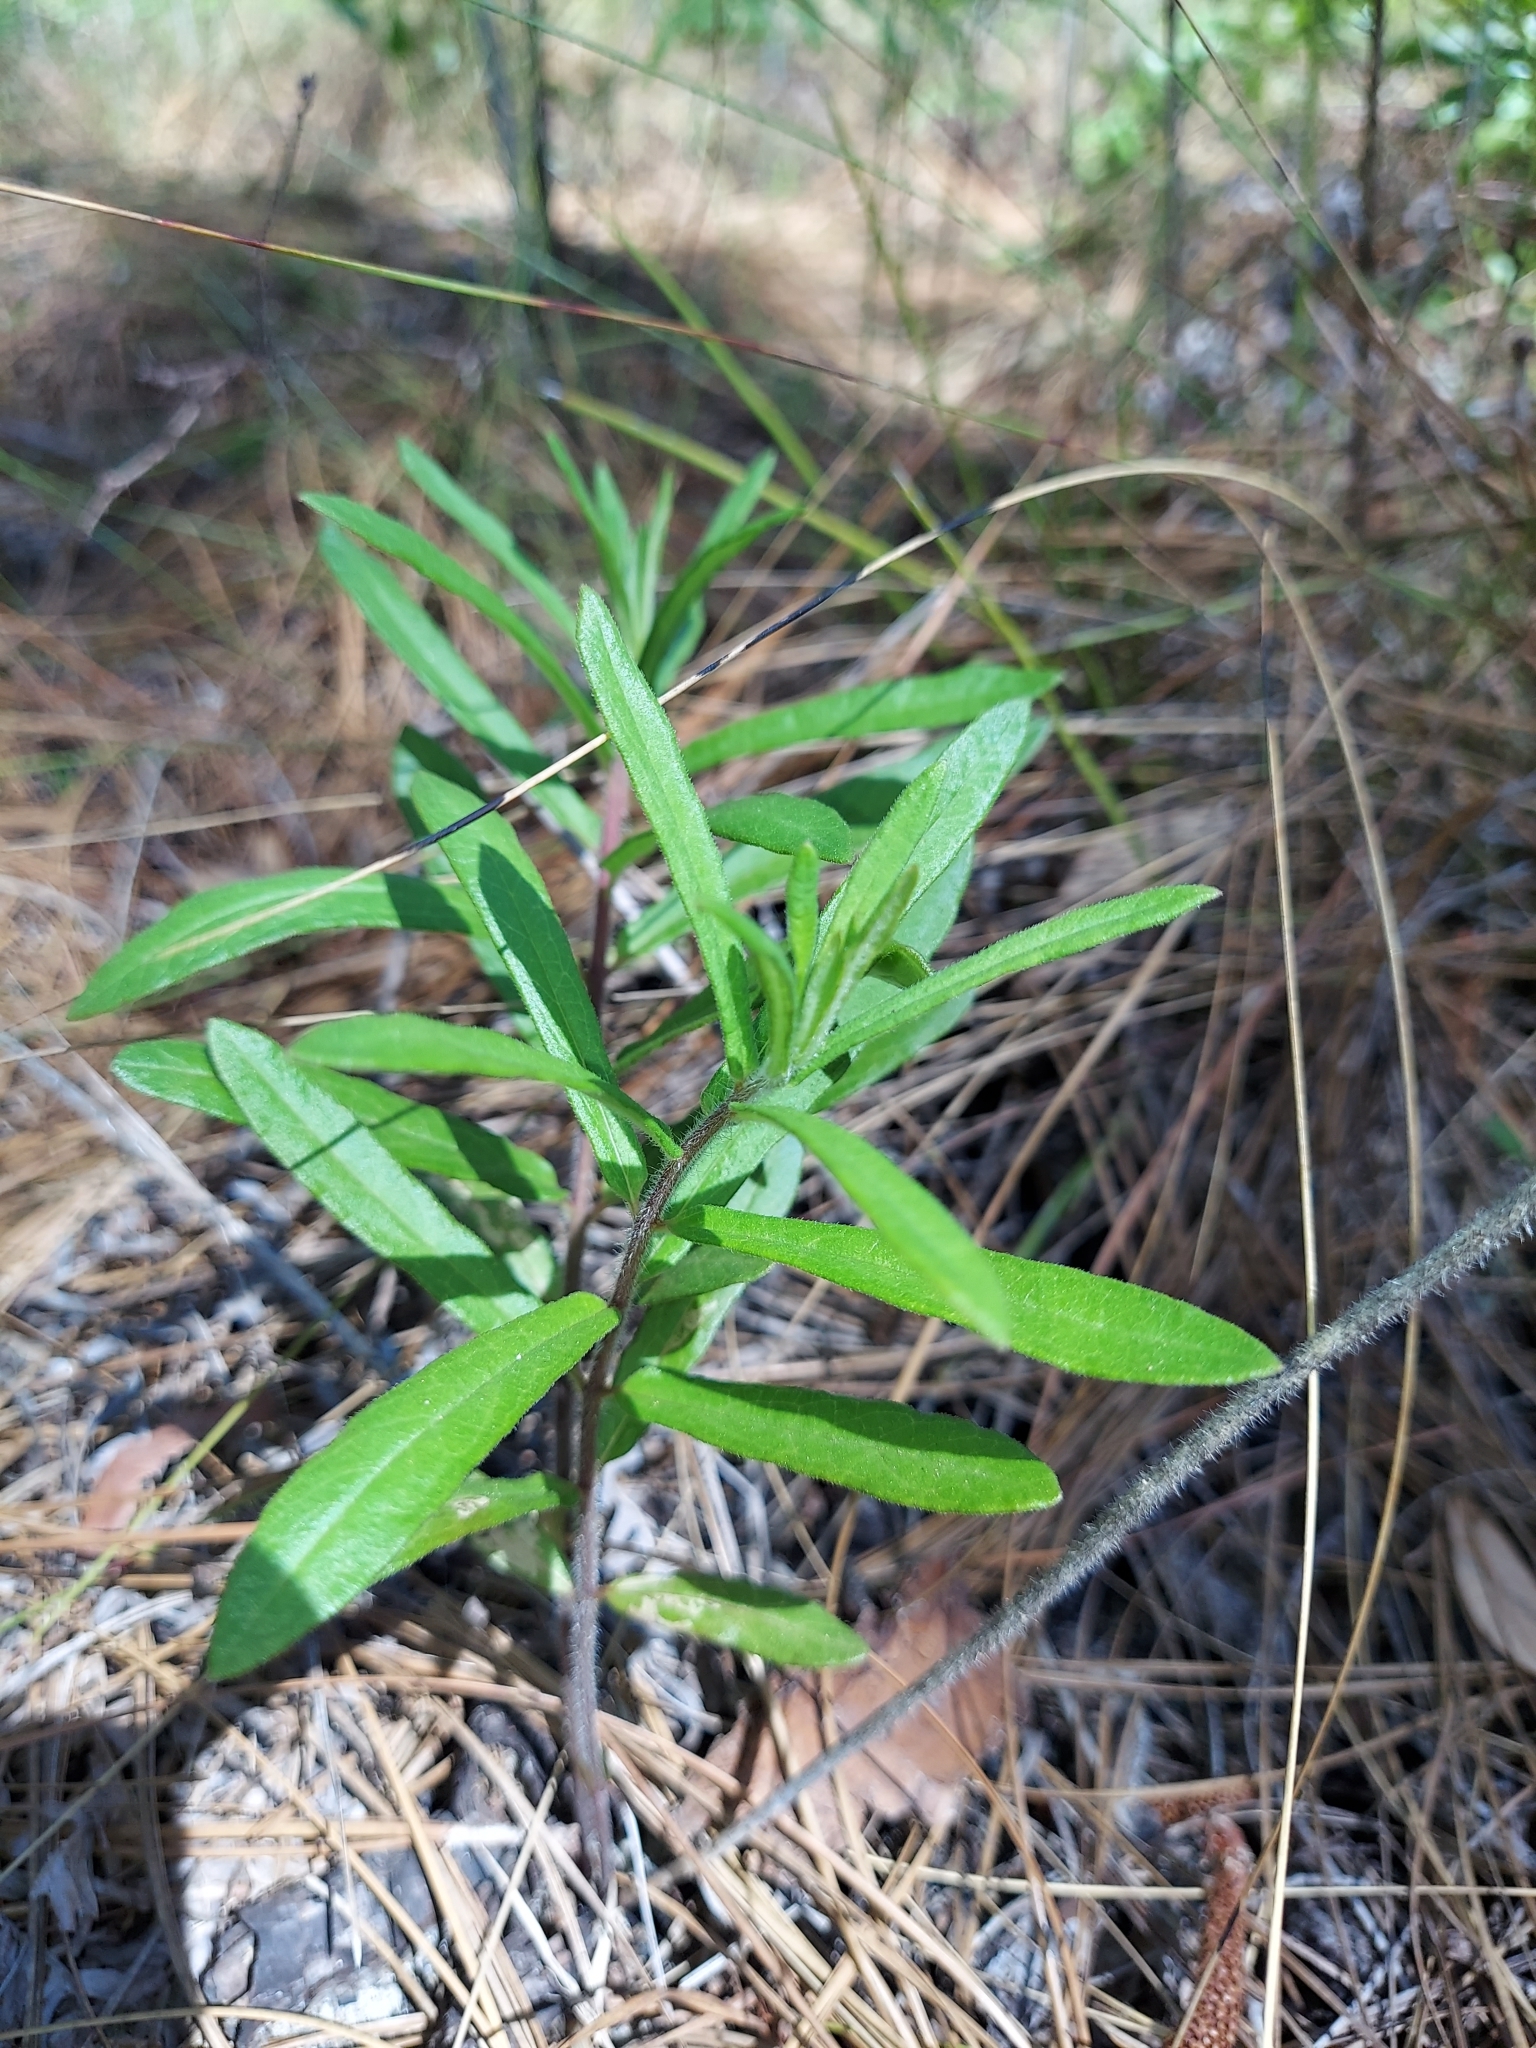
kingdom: Plantae
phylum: Tracheophyta
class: Magnoliopsida
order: Gentianales
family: Apocynaceae
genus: Asclepias
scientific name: Asclepias tuberosa
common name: Butterfly milkweed
